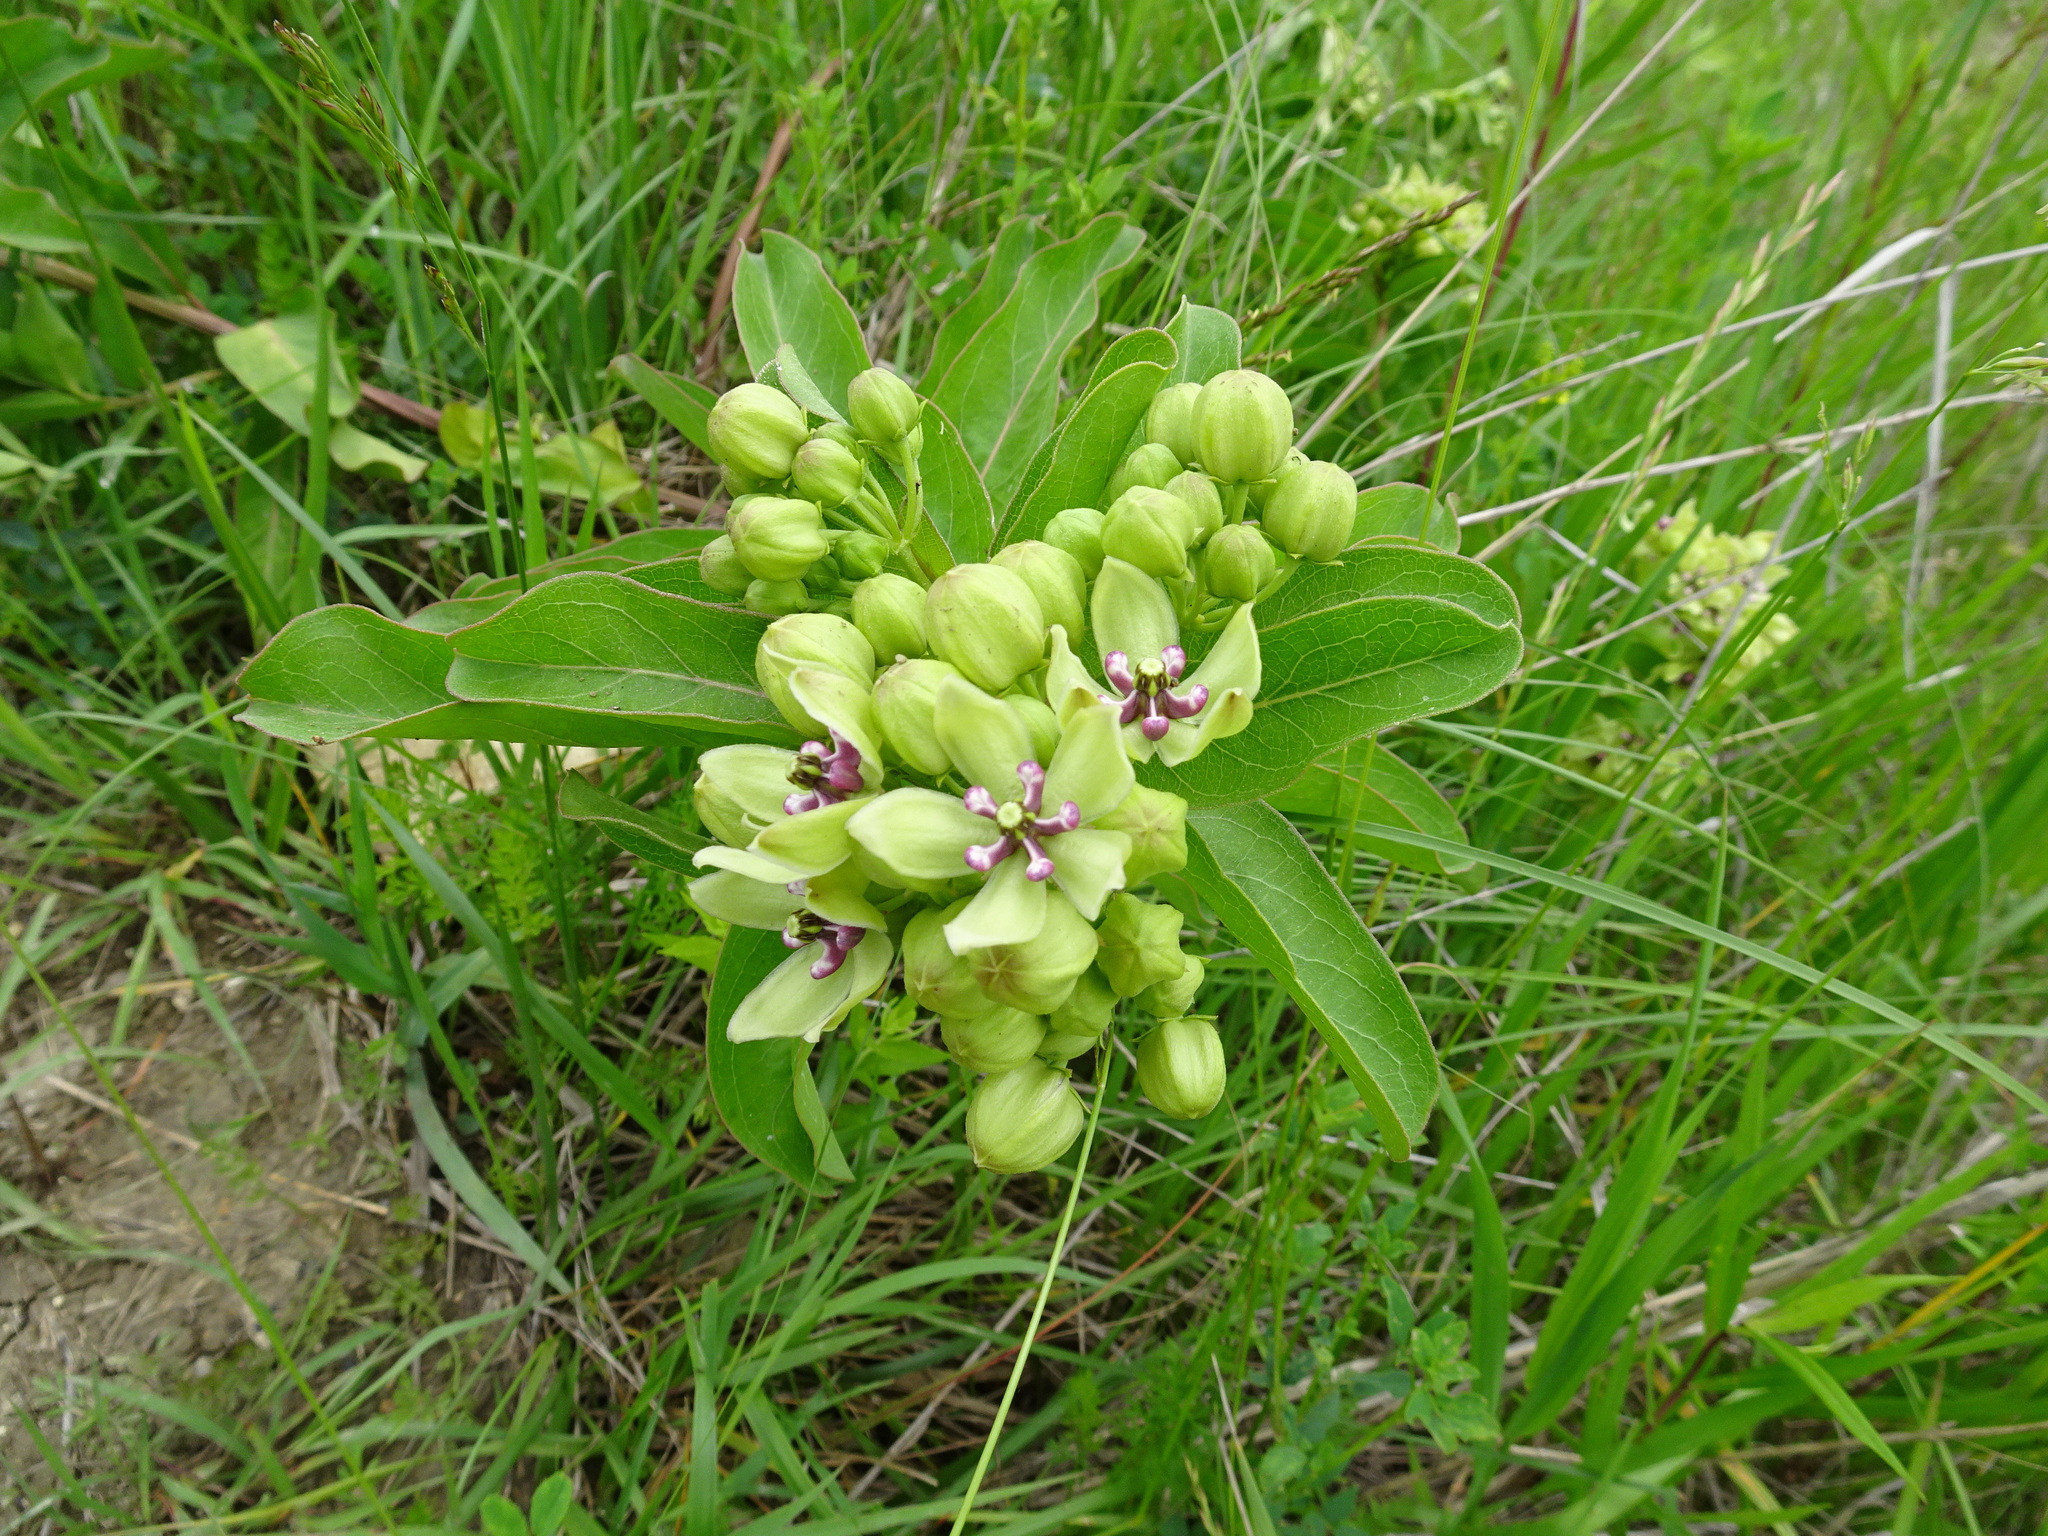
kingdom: Plantae
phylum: Tracheophyta
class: Magnoliopsida
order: Gentianales
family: Apocynaceae
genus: Asclepias
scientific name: Asclepias viridis
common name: Antelope-horns
